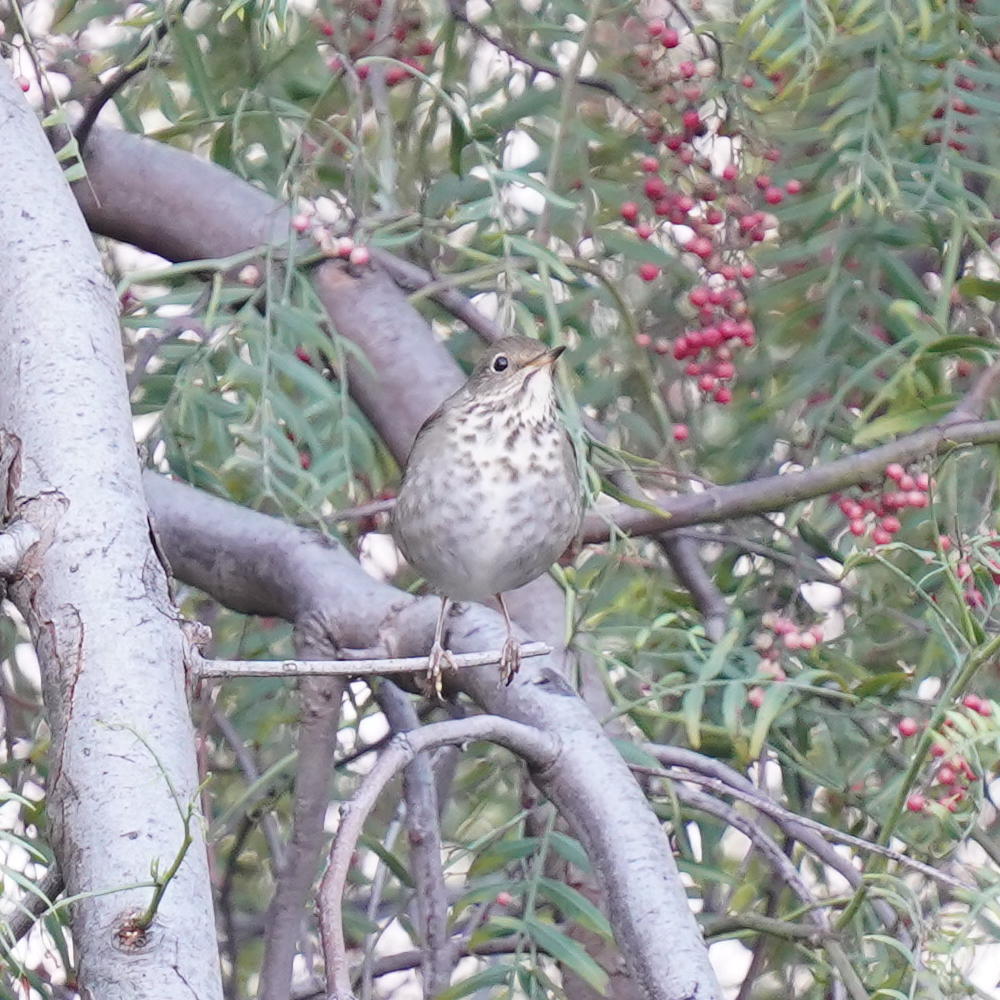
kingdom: Animalia
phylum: Chordata
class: Aves
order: Passeriformes
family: Turdidae
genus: Catharus
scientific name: Catharus guttatus
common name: Hermit thrush
